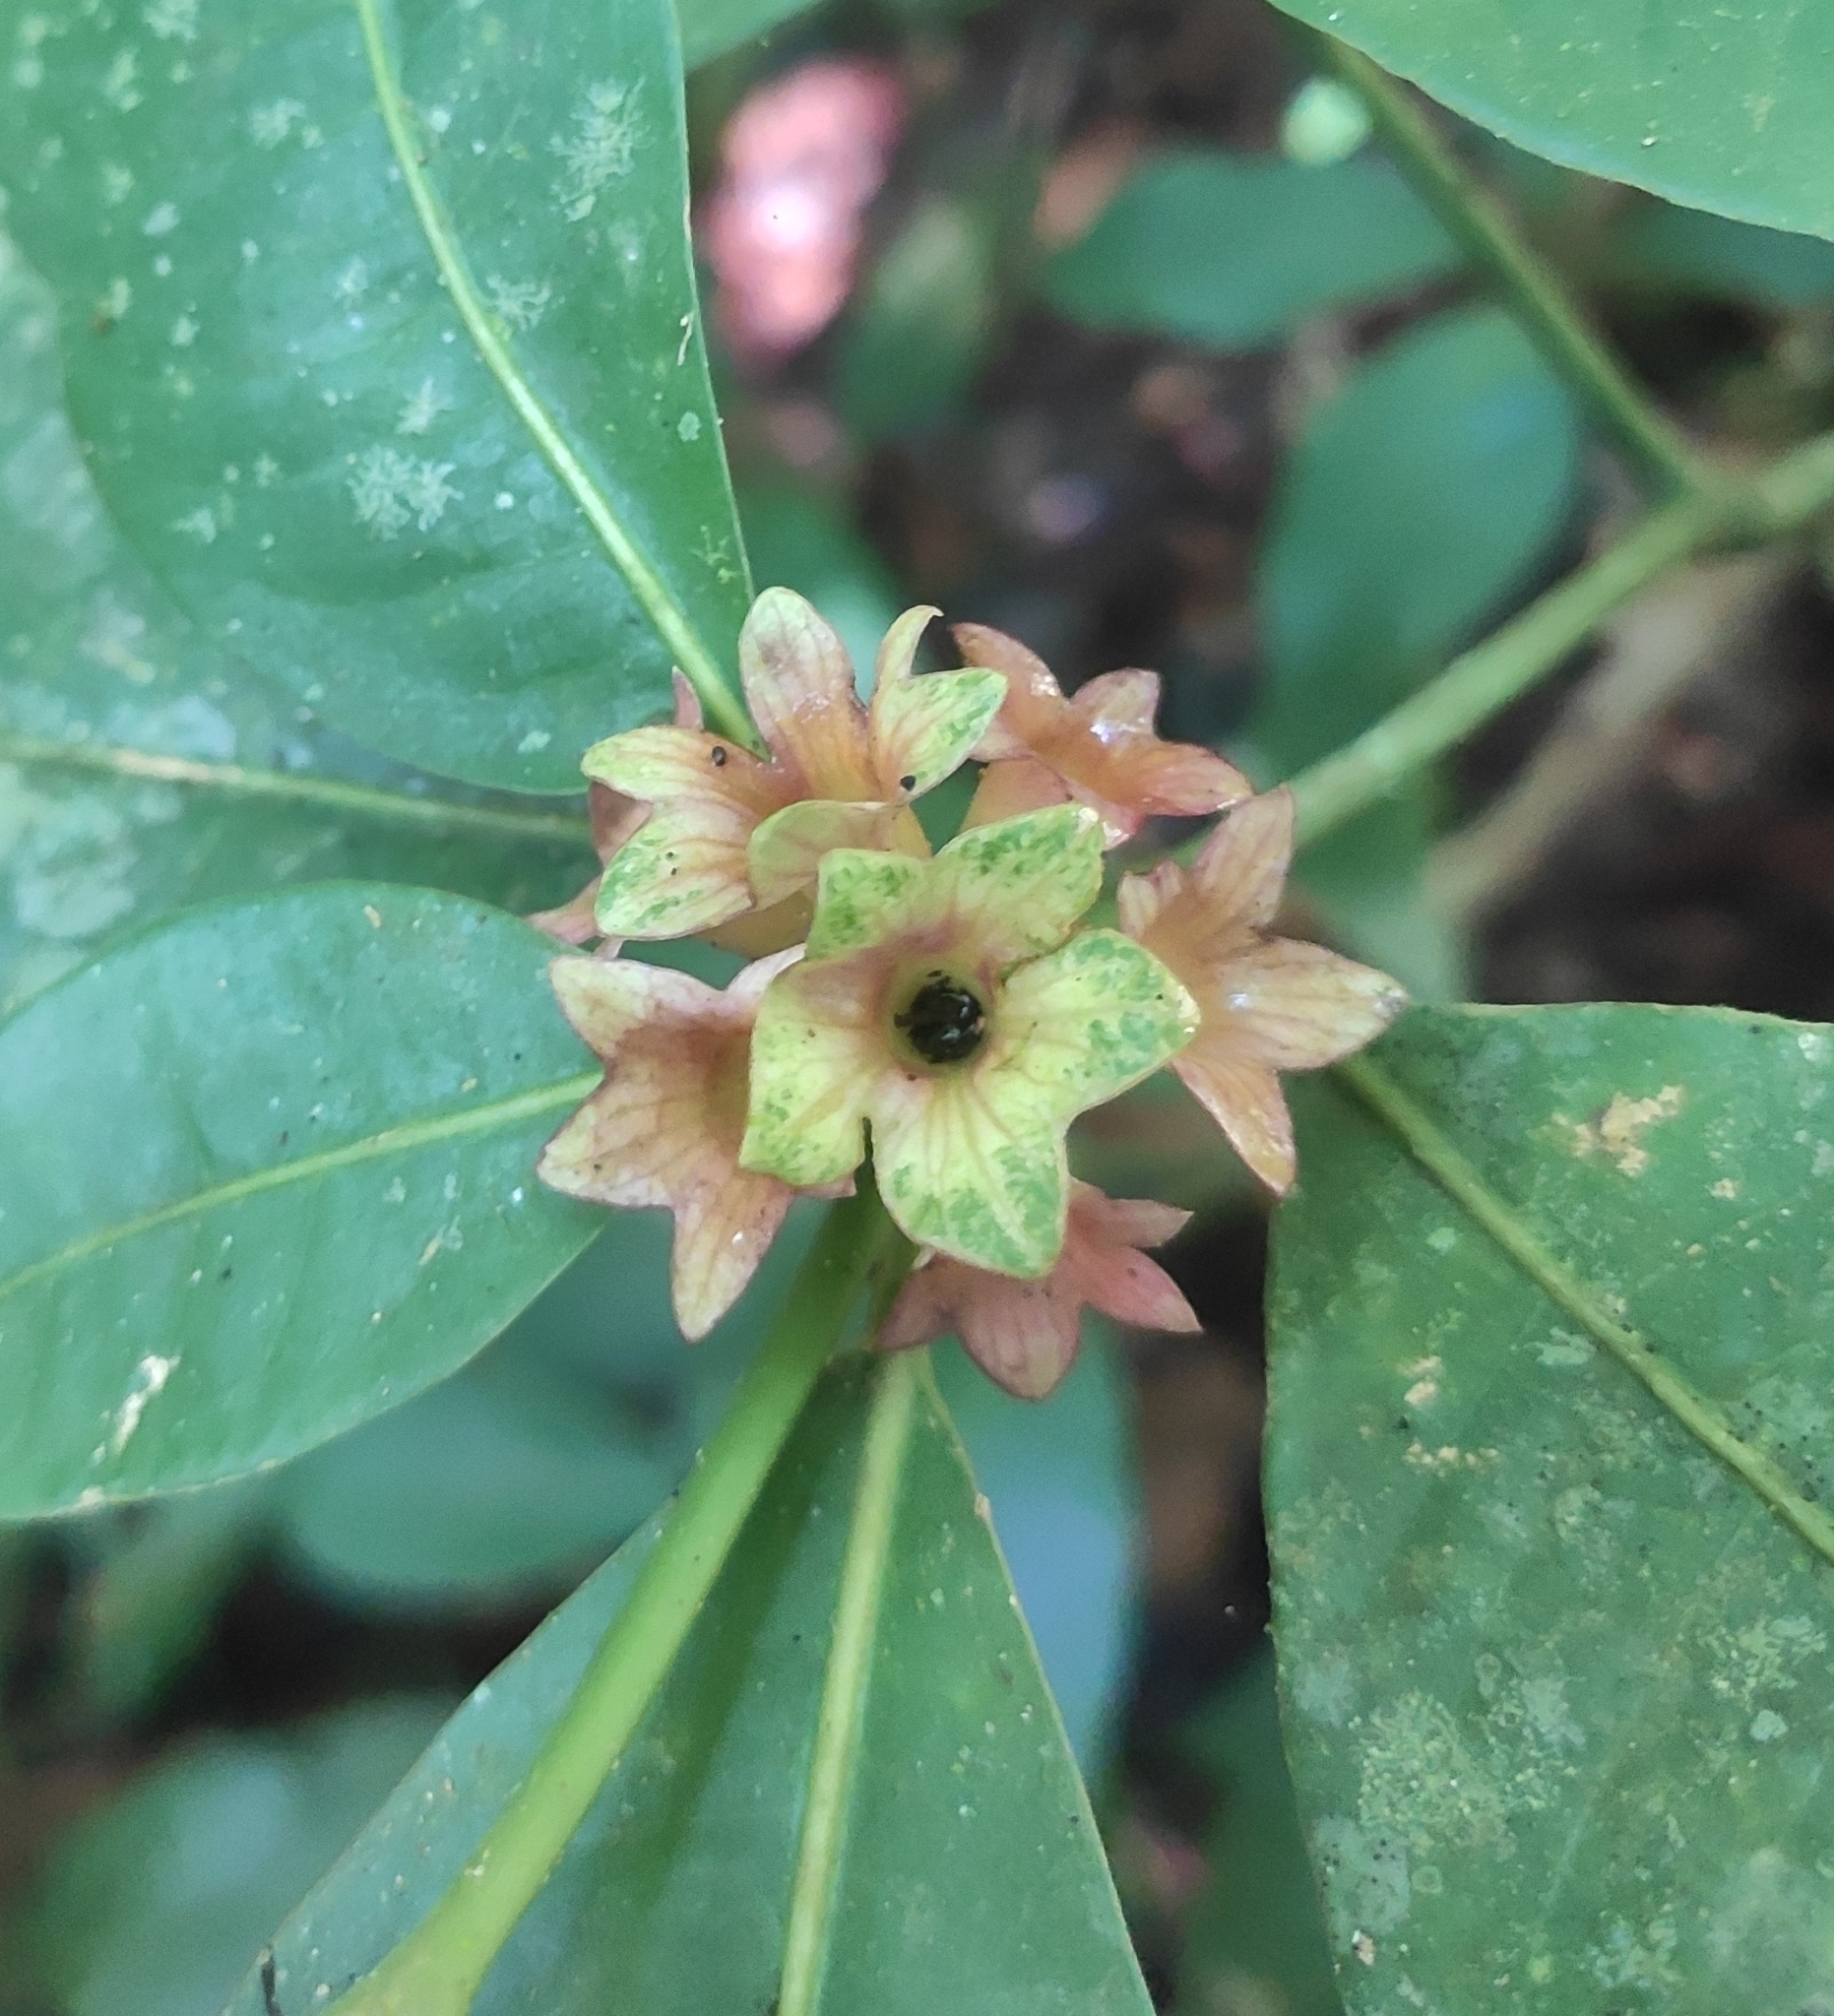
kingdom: Plantae
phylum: Tracheophyta
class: Magnoliopsida
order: Gentianales
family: Rubiaceae
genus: Psychotria
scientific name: Psychotria nuda
